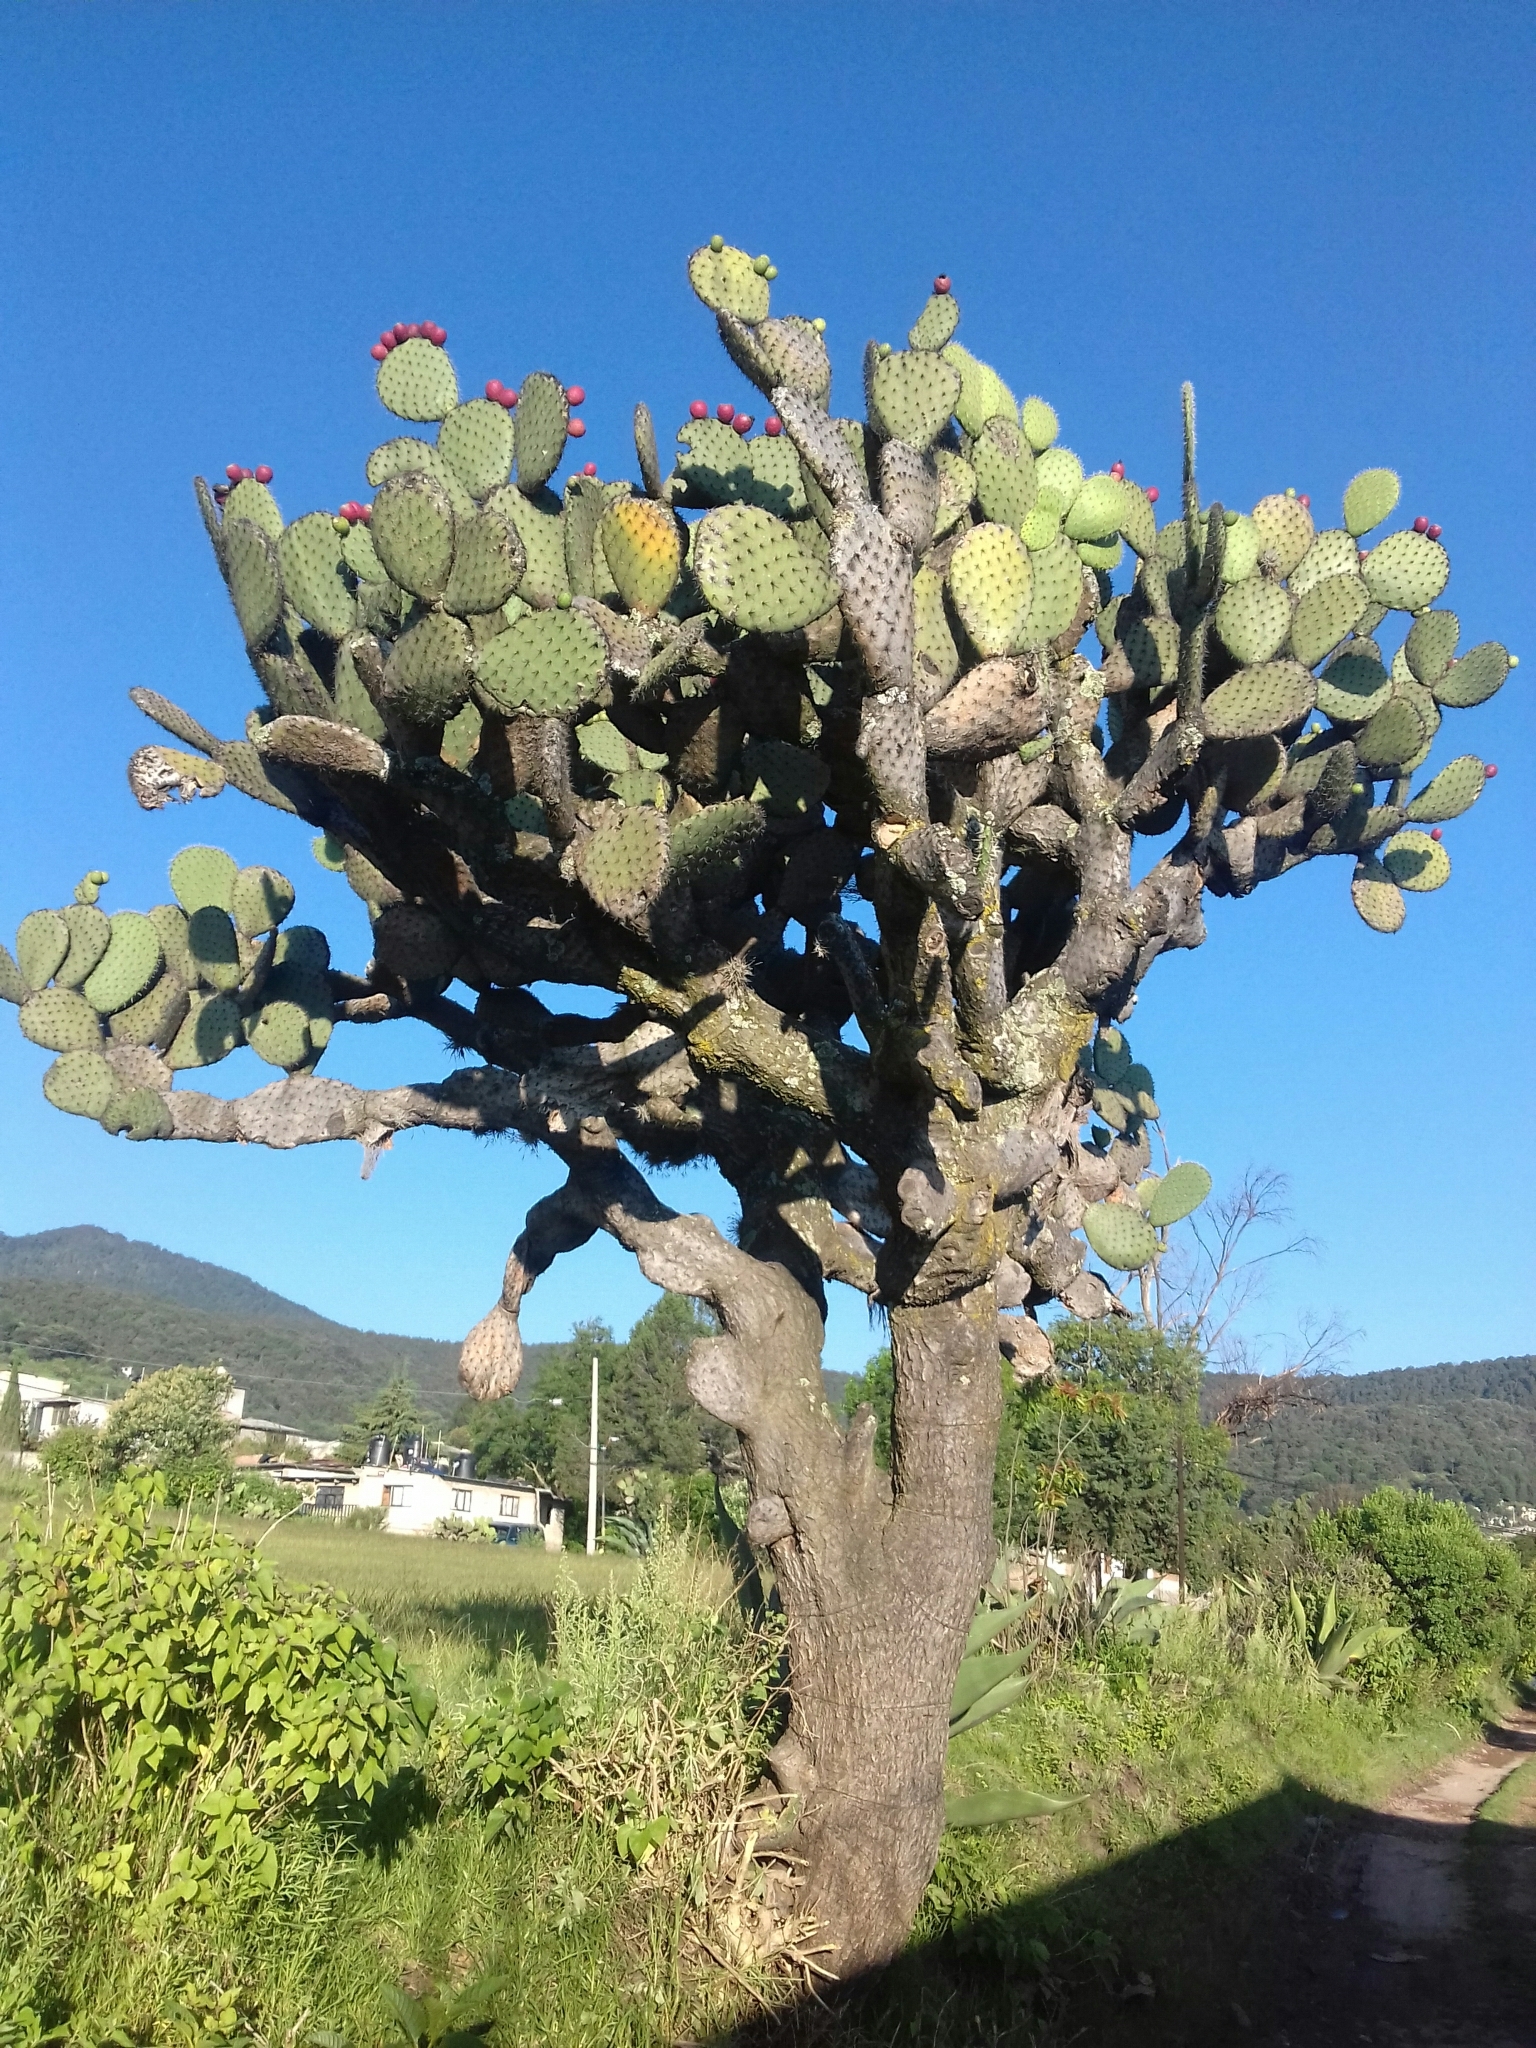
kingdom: Plantae
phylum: Tracheophyta
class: Magnoliopsida
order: Caryophyllales
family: Cactaceae
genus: Opuntia
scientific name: Opuntia streptacantha
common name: Gracemere-pear
